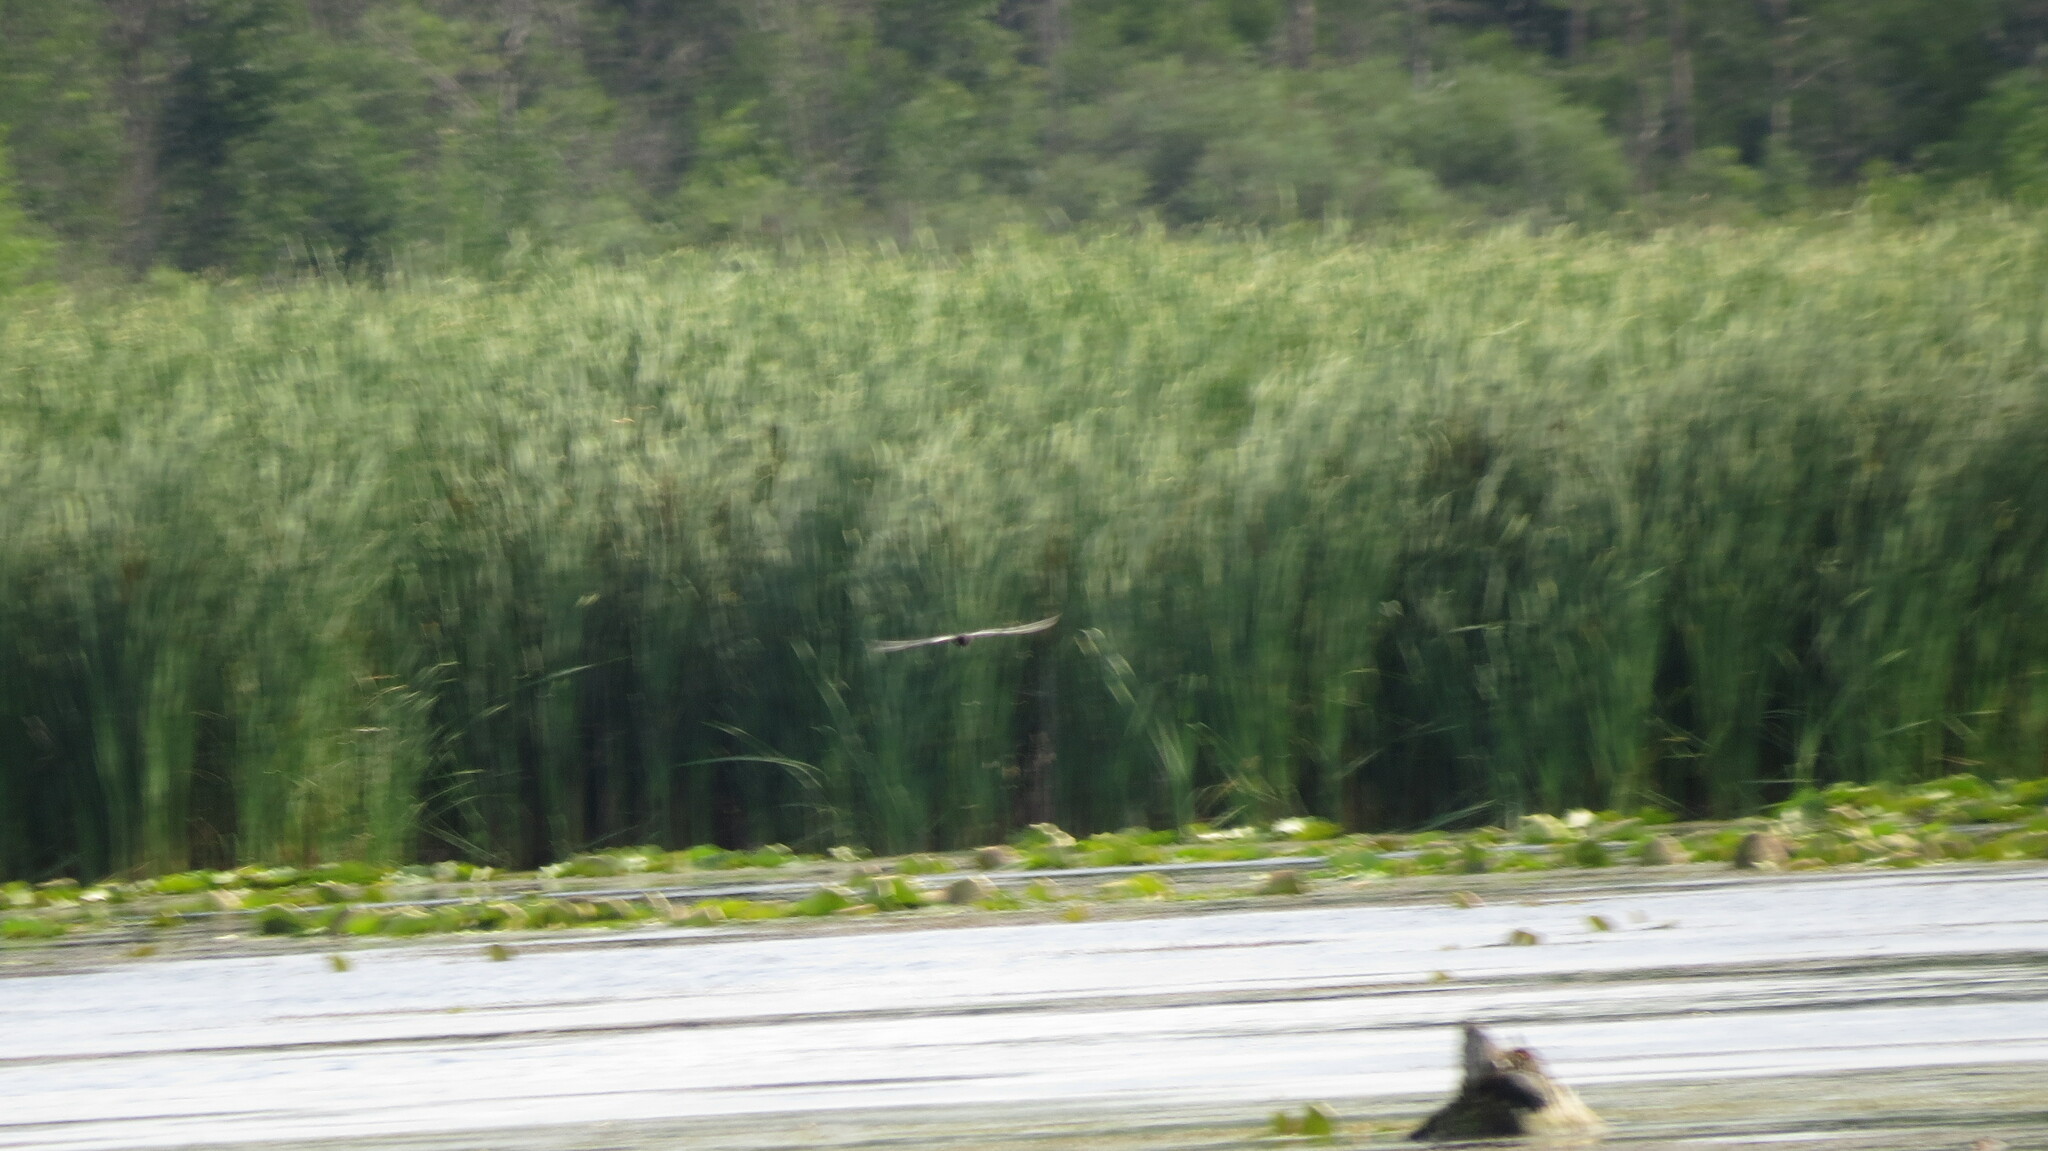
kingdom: Animalia
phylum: Chordata
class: Aves
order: Charadriiformes
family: Laridae
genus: Chlidonias
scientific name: Chlidonias niger
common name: Black tern
